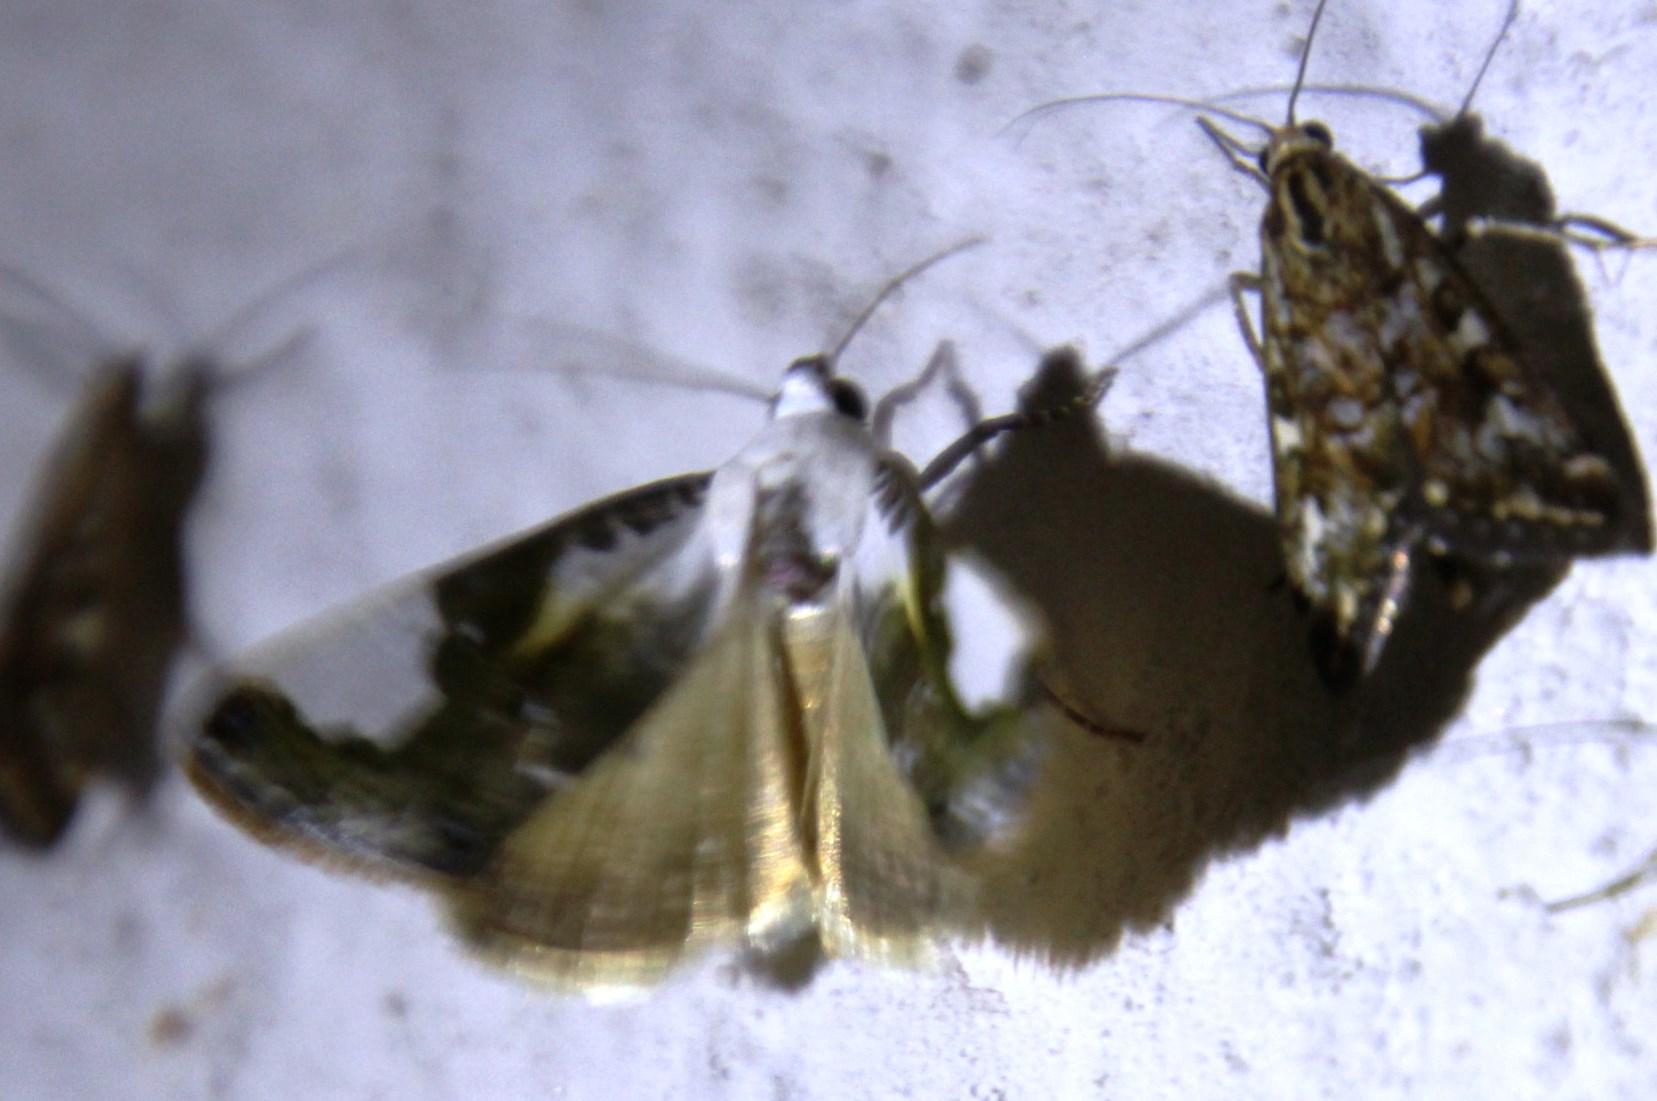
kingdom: Animalia
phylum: Arthropoda
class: Insecta
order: Lepidoptera
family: Noctuidae
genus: Hoplotarache
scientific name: Hoplotarache mionides
